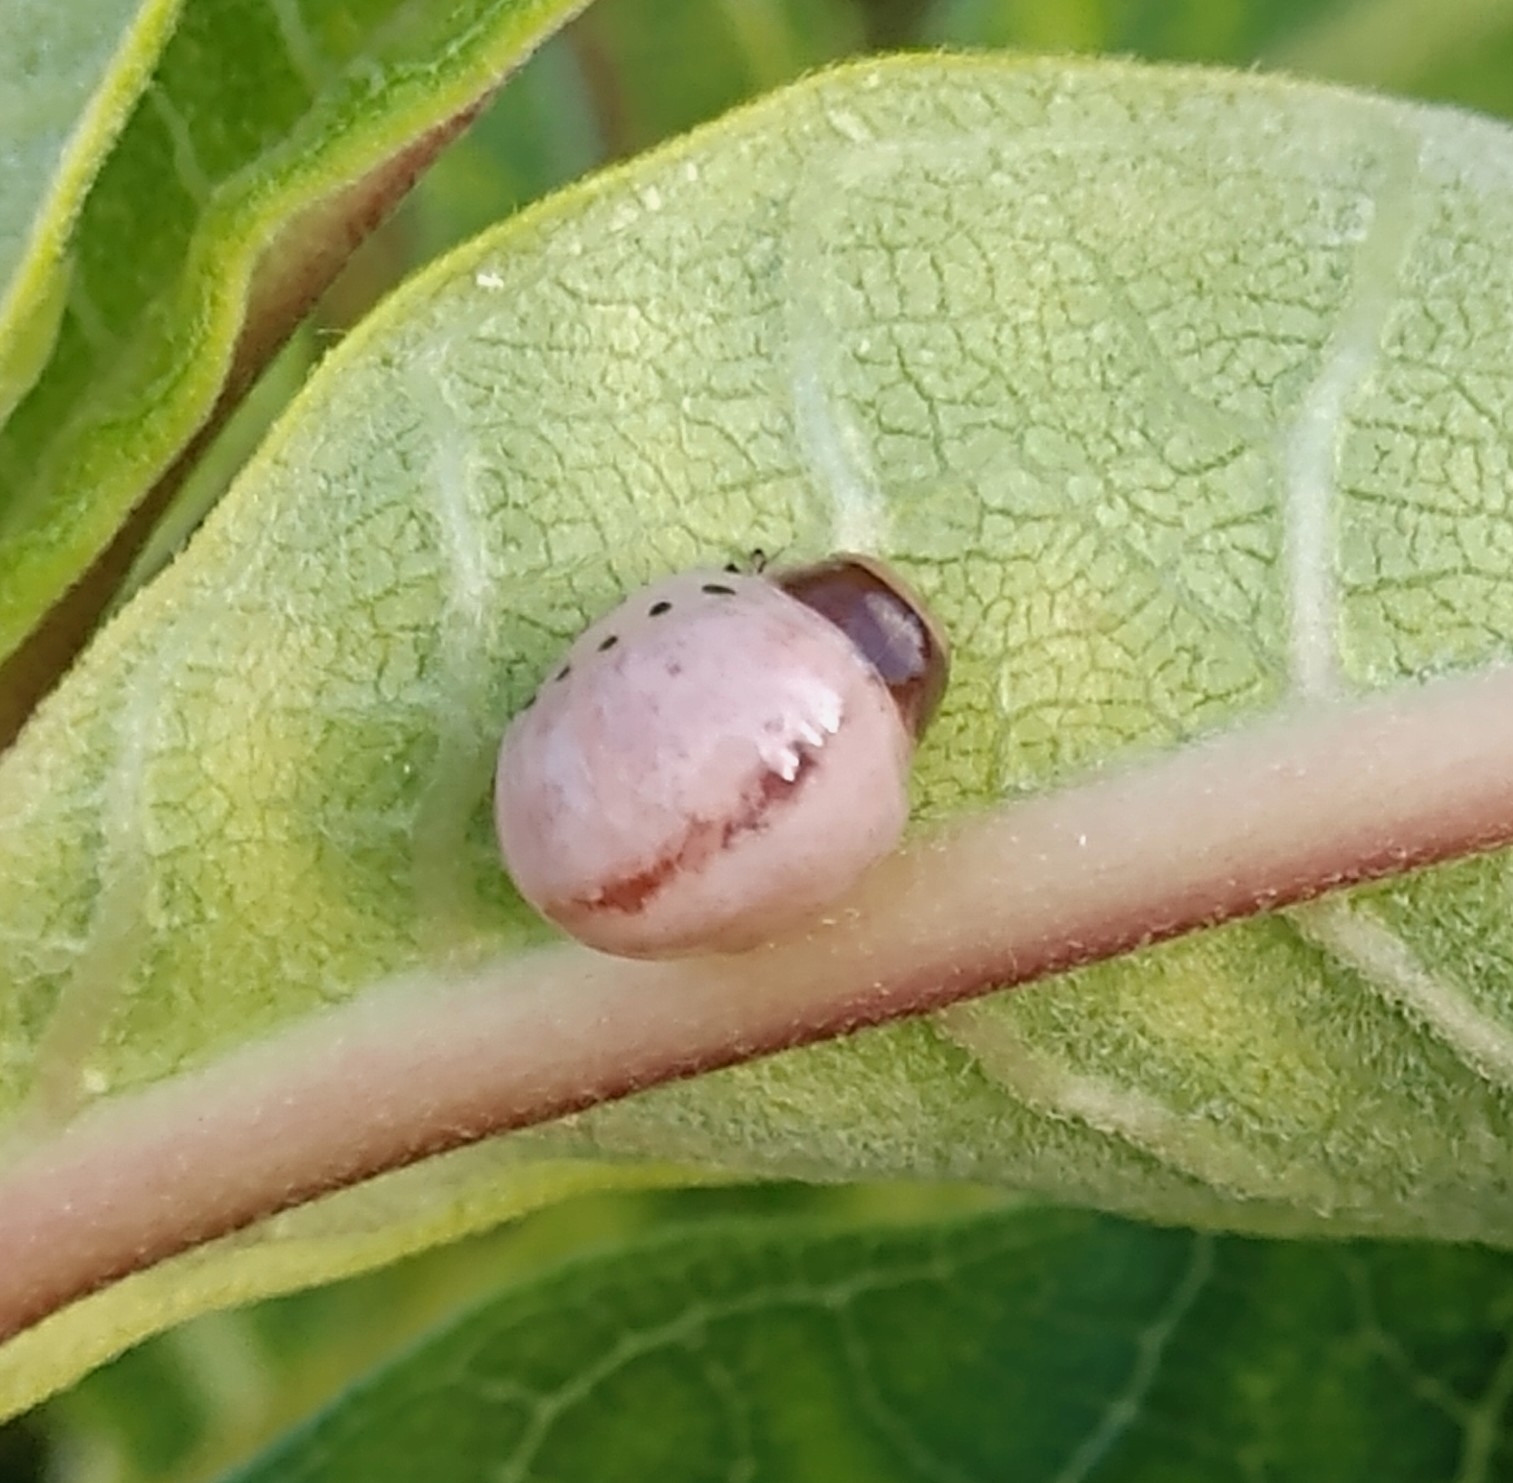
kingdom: Animalia
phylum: Arthropoda
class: Insecta
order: Coleoptera
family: Chrysomelidae
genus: Labidomera
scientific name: Labidomera clivicollis
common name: Swamp milkweed leaf beetle
